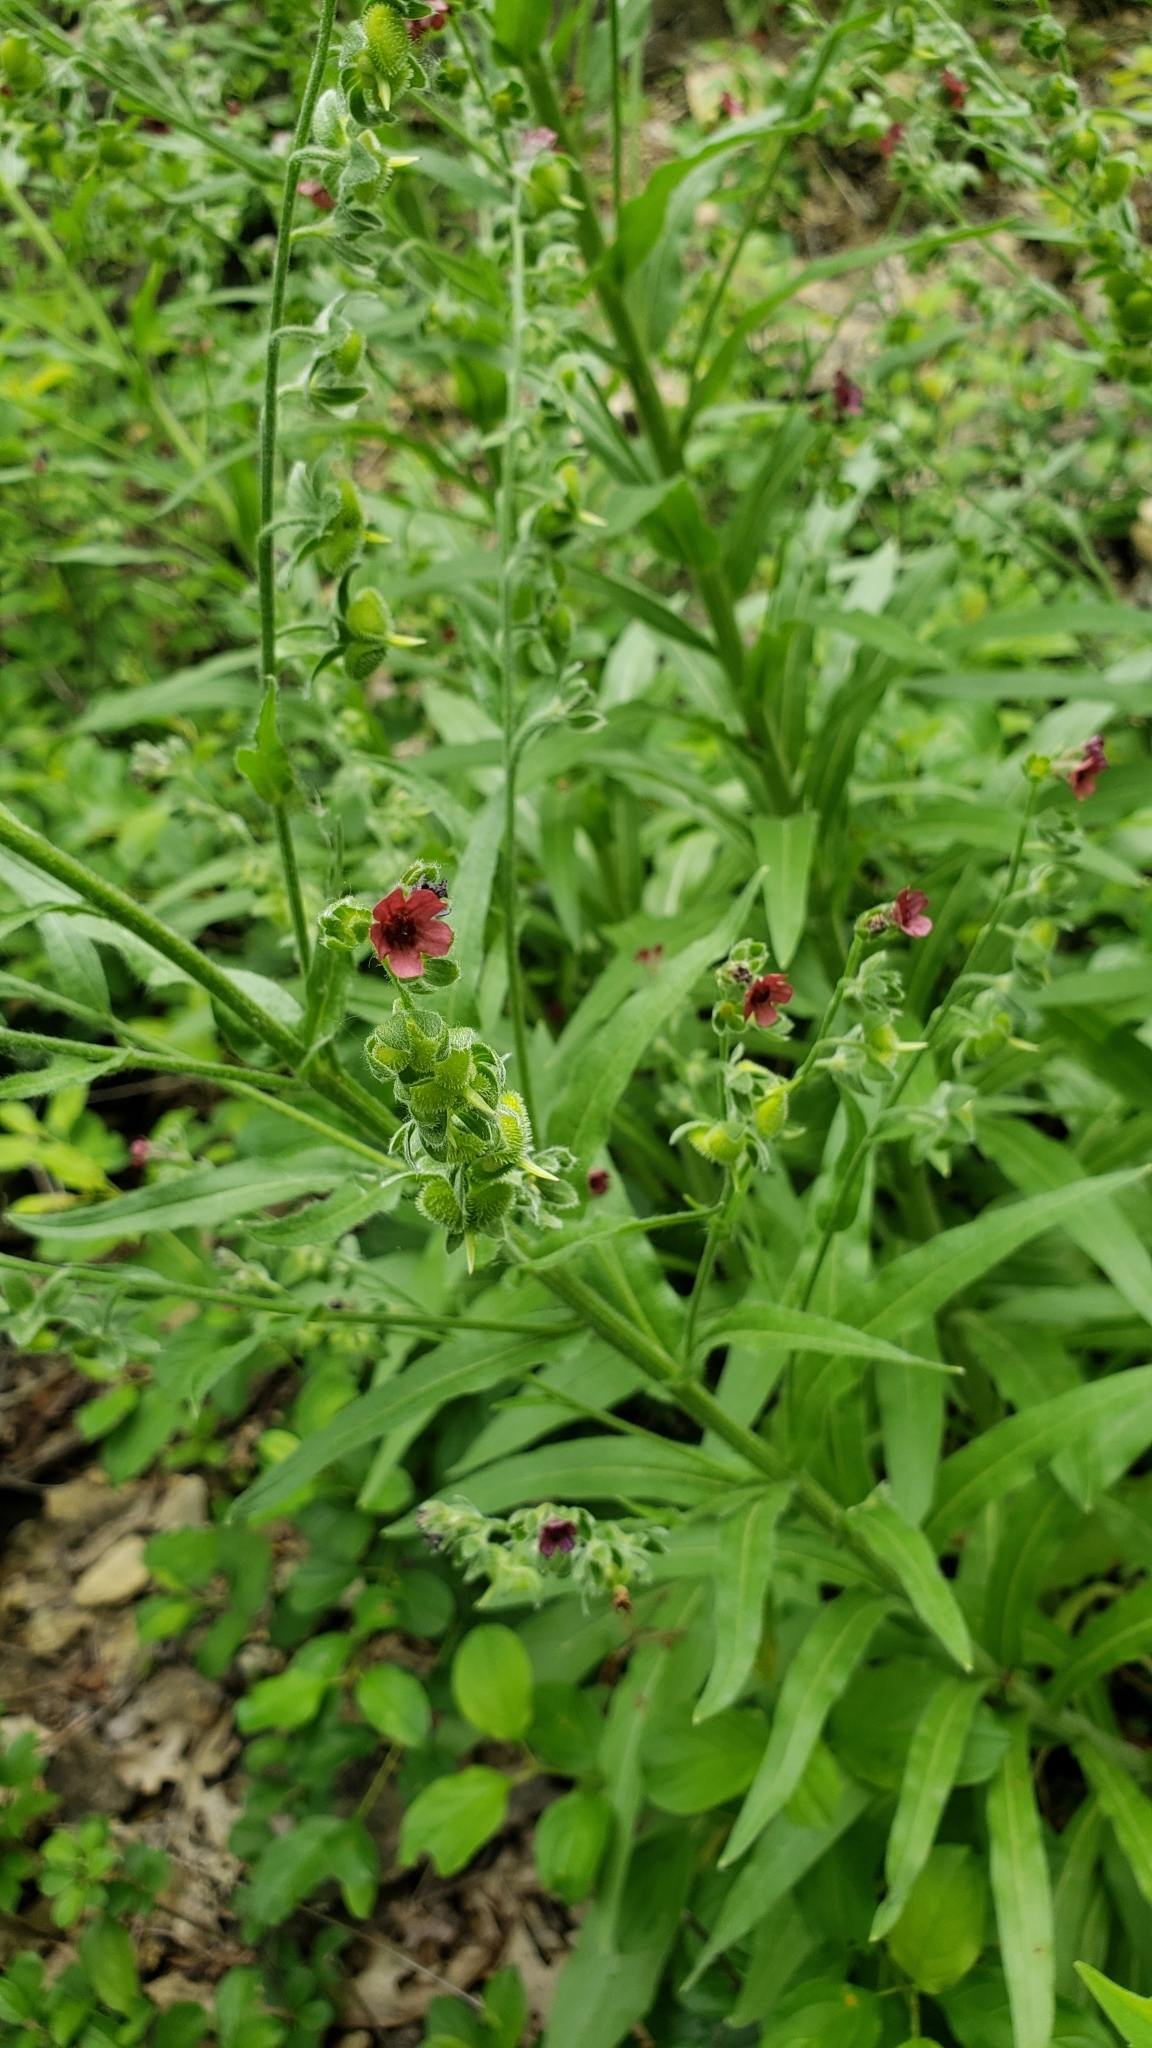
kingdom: Plantae
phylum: Tracheophyta
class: Magnoliopsida
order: Boraginales
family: Boraginaceae
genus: Cynoglossum
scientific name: Cynoglossum officinale
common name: Hound's-tongue
